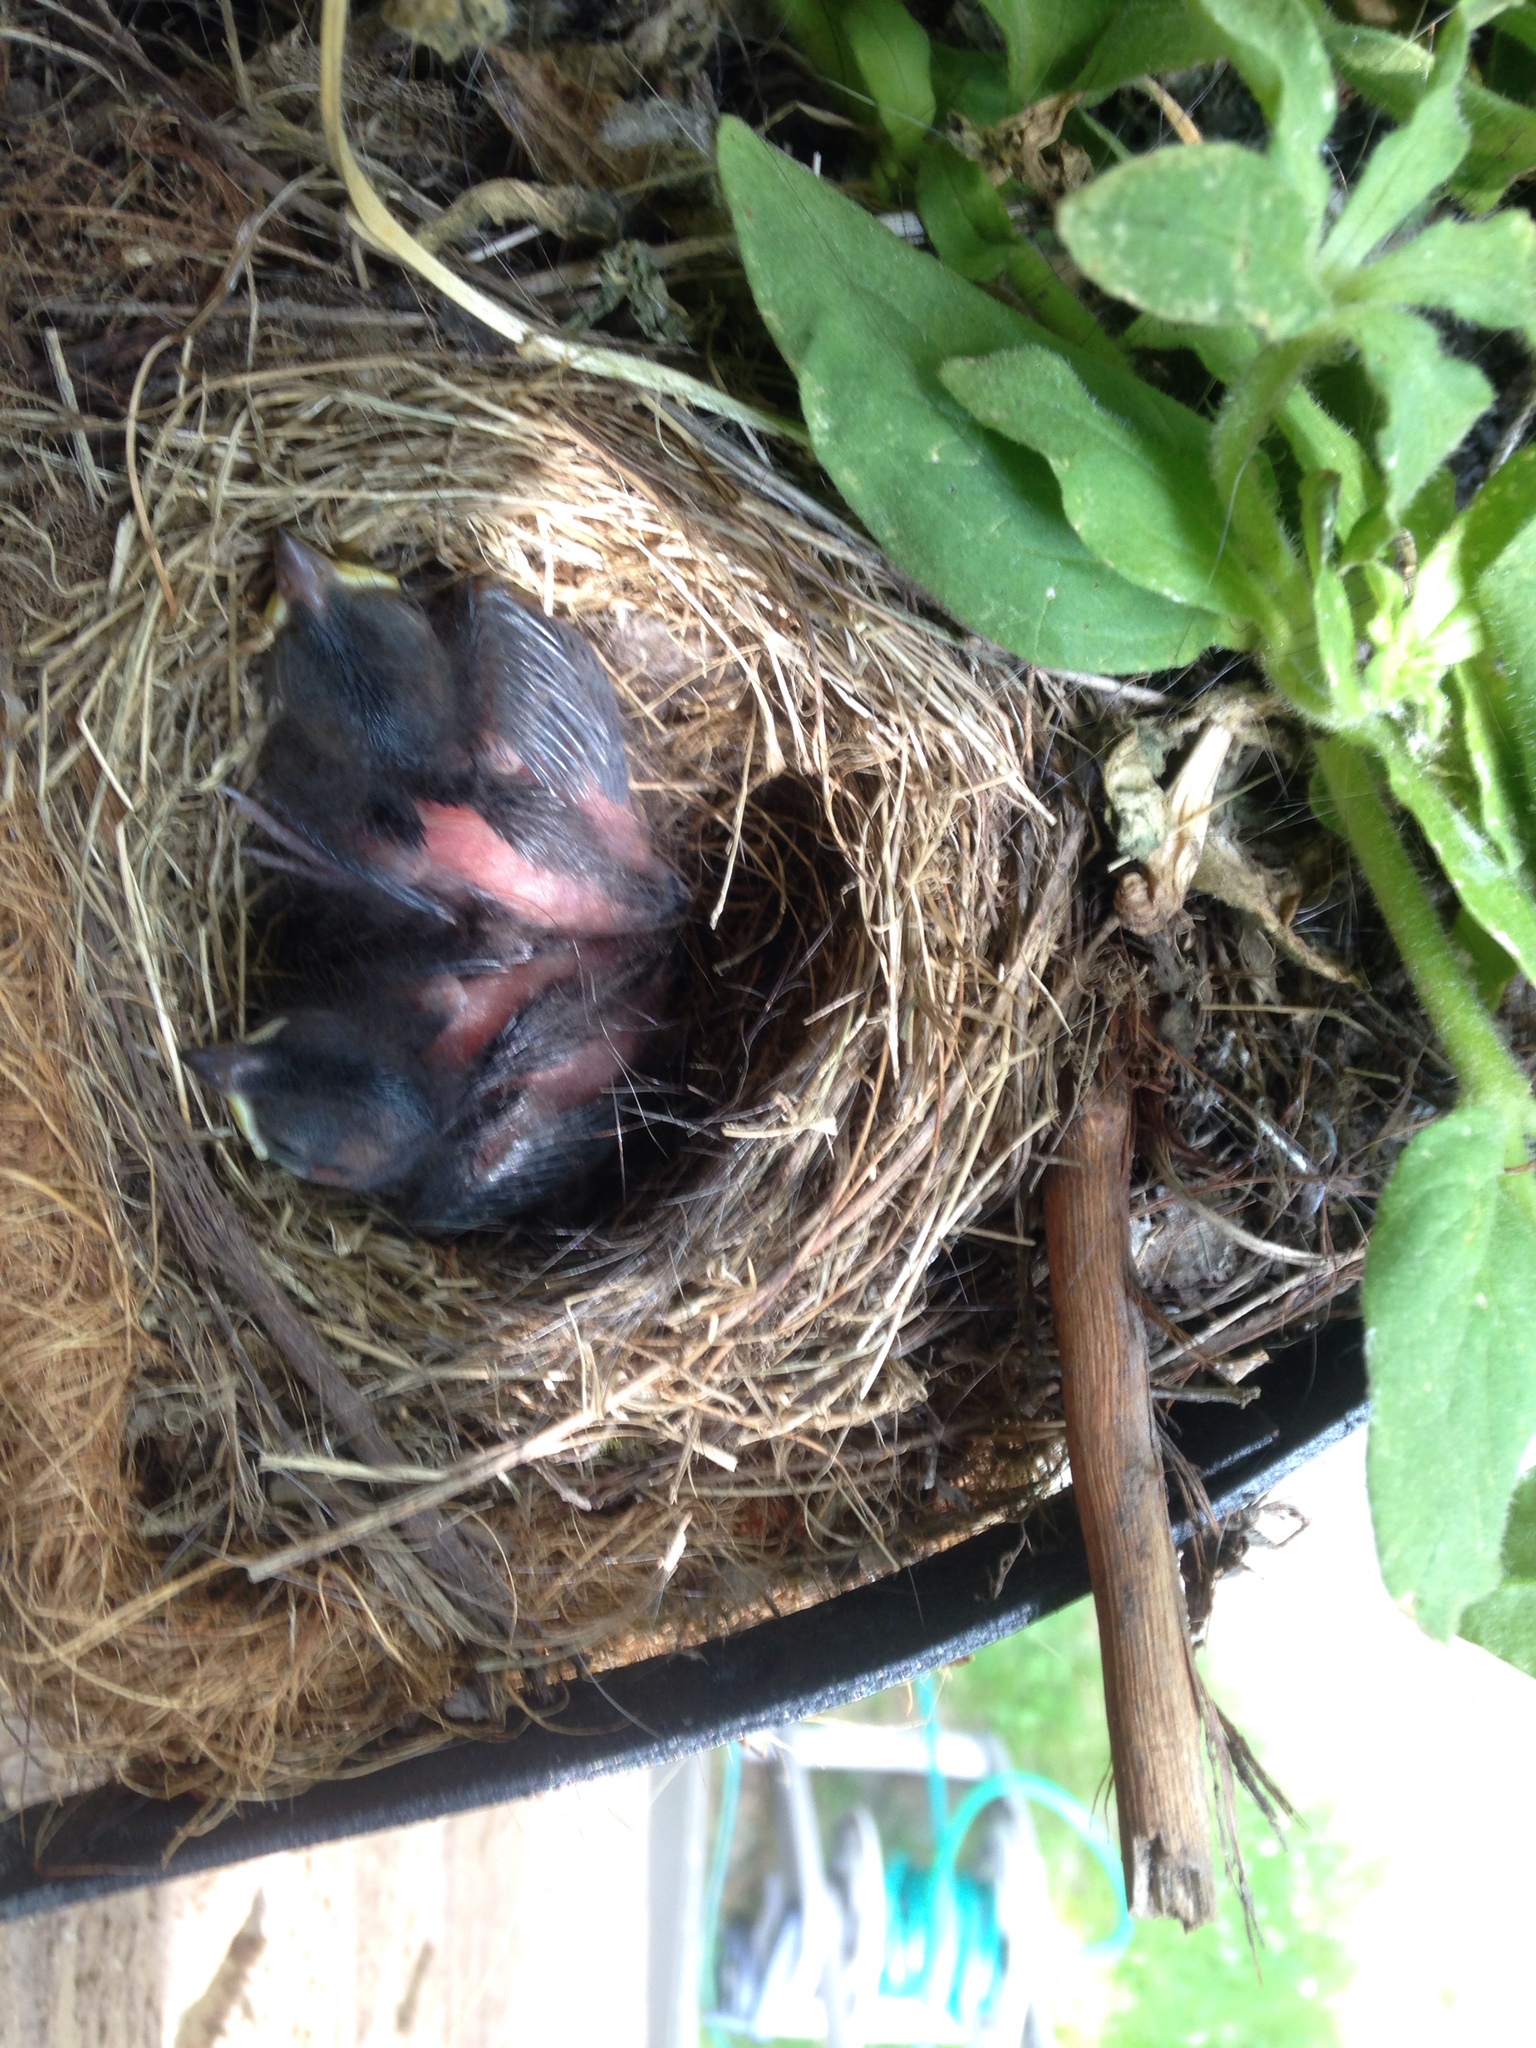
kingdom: Animalia
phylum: Chordata
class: Aves
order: Passeriformes
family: Passerellidae
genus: Junco
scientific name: Junco hyemalis
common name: Dark-eyed junco
